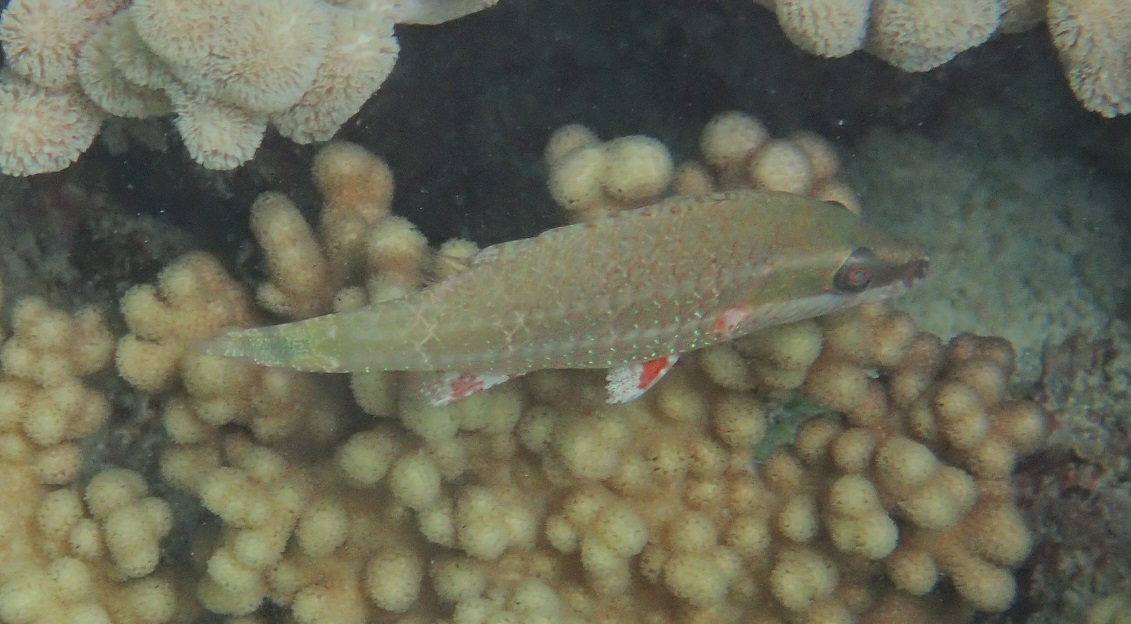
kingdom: Animalia
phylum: Chordata
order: Perciformes
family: Labridae
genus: Oxycheilinus
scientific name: Oxycheilinus digramma
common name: Bandcheek wrasse
